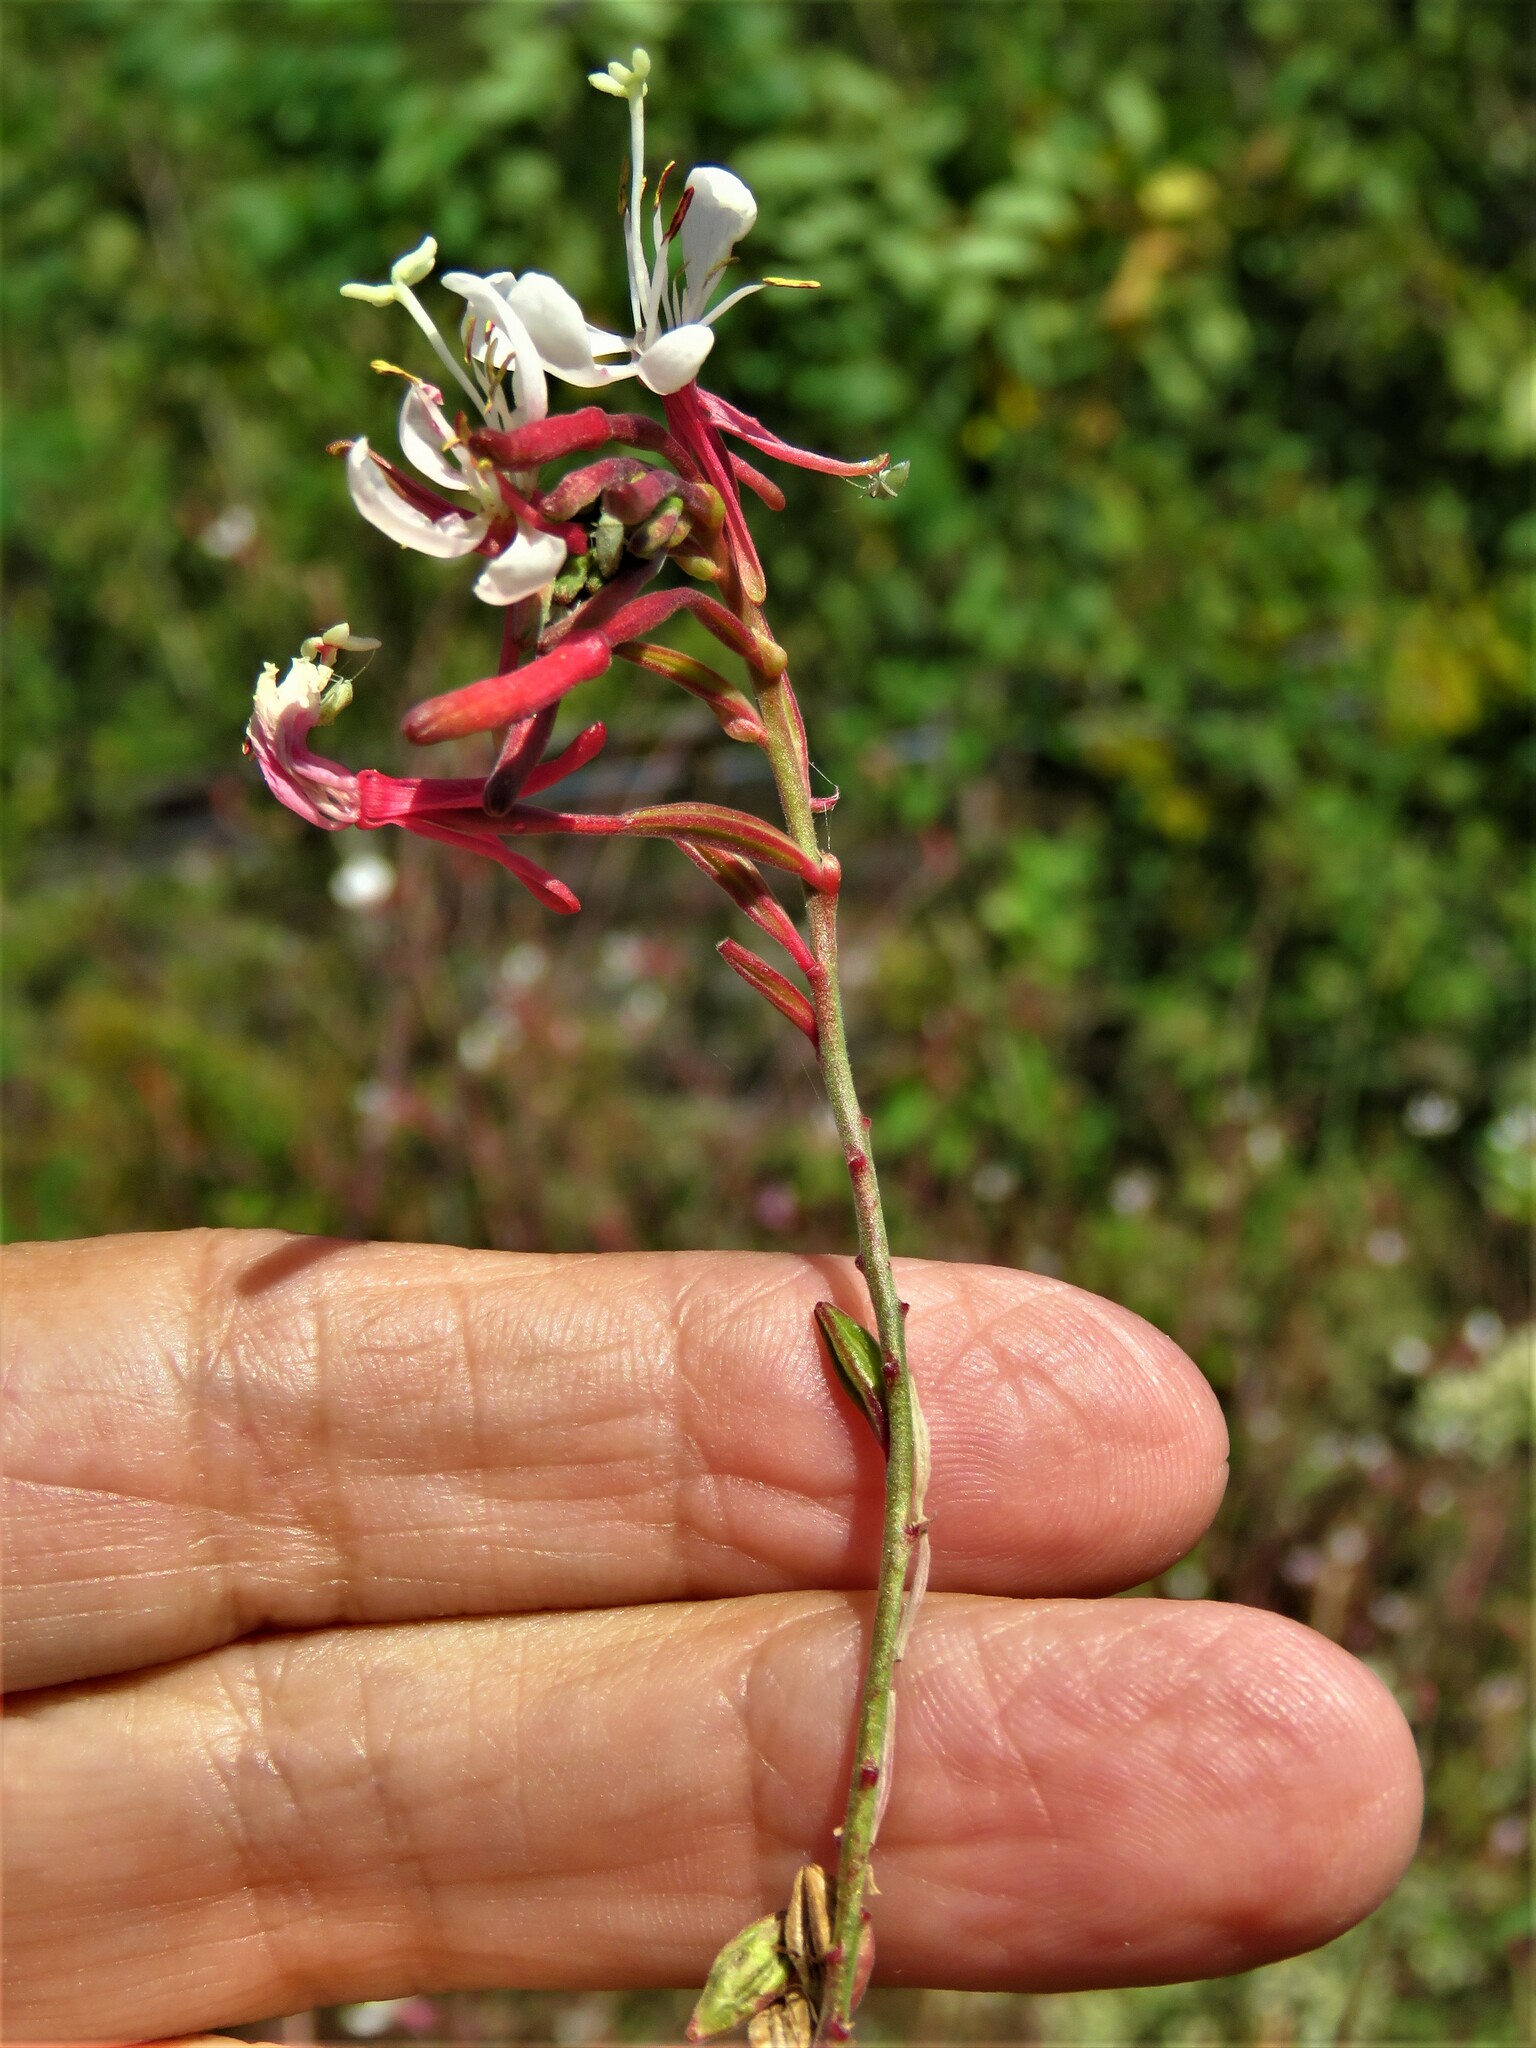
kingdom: Plantae
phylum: Tracheophyta
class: Magnoliopsida
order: Myrtales
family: Onagraceae
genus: Oenothera
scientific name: Oenothera lindheimeri
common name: Lindheimer's beeblossom
